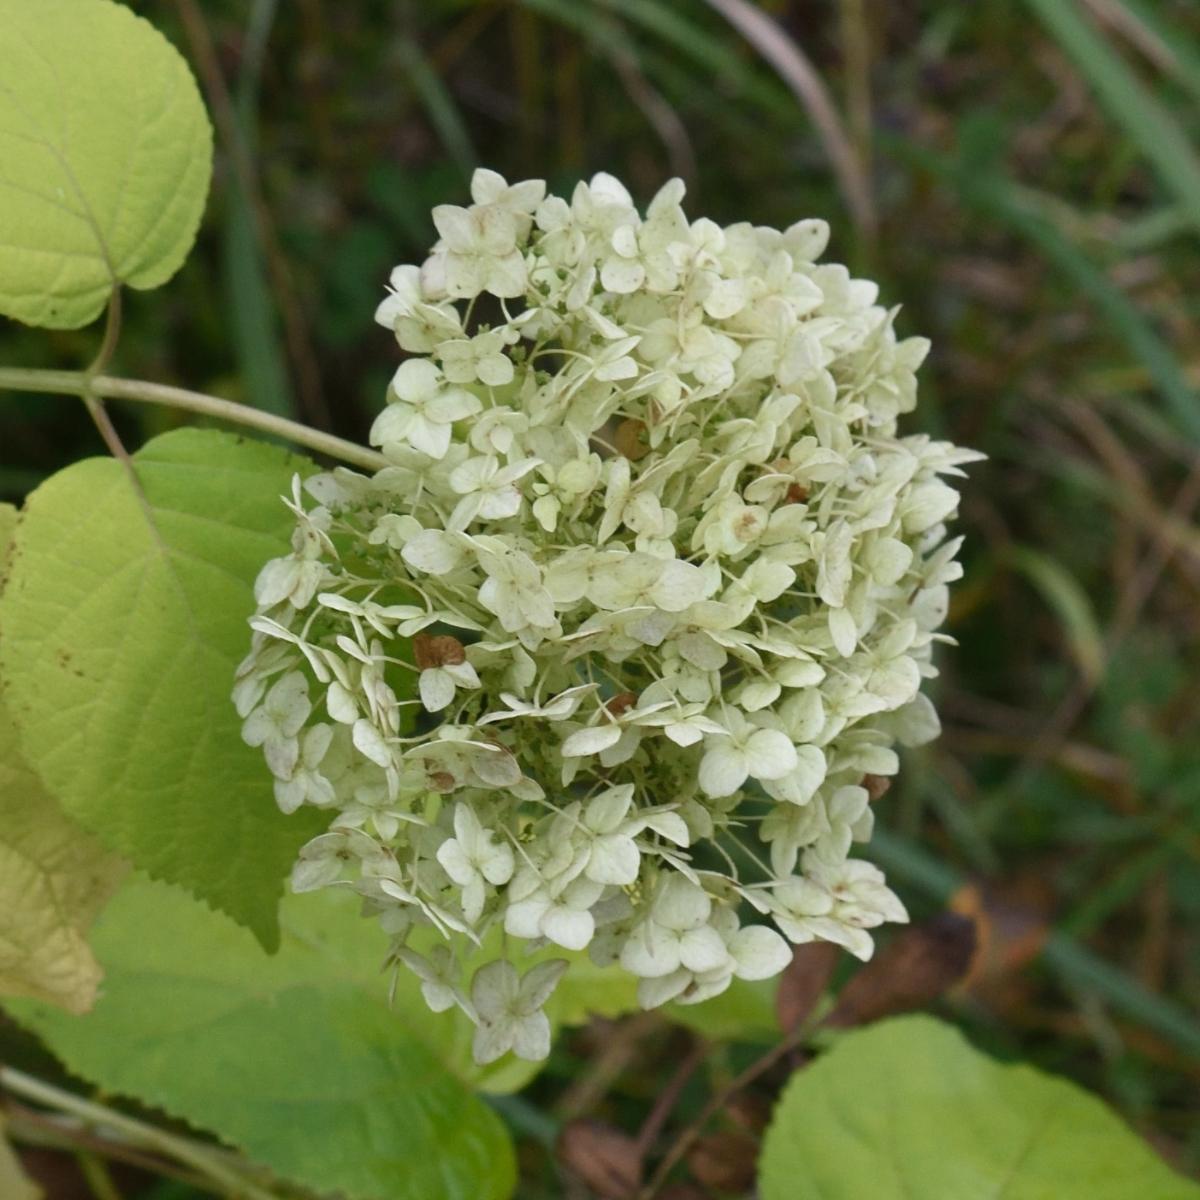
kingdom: Plantae
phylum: Tracheophyta
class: Magnoliopsida
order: Cornales
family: Hydrangeaceae
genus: Hydrangea
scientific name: Hydrangea arborescens
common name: Sevenbark
